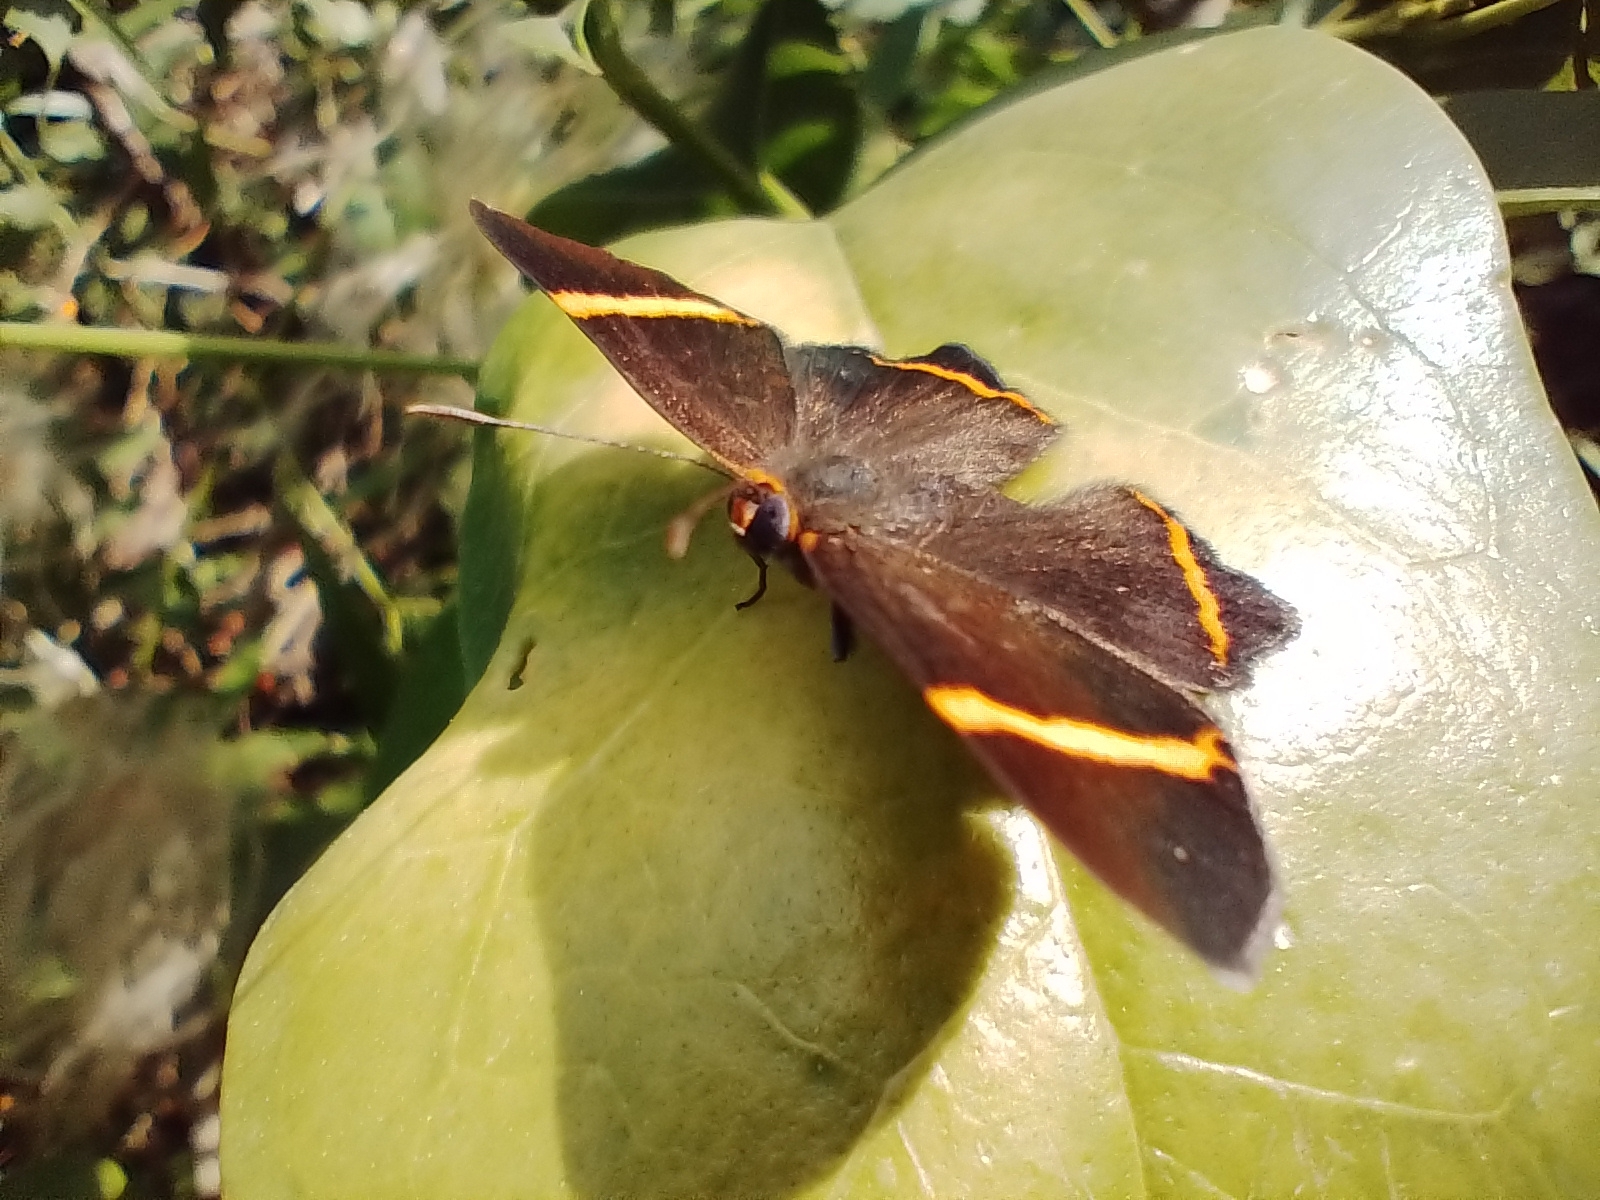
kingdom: Animalia
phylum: Arthropoda
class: Insecta
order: Lepidoptera
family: Riodinidae
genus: Riodina
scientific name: Riodina lysippoides
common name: Little dancer metalmark
